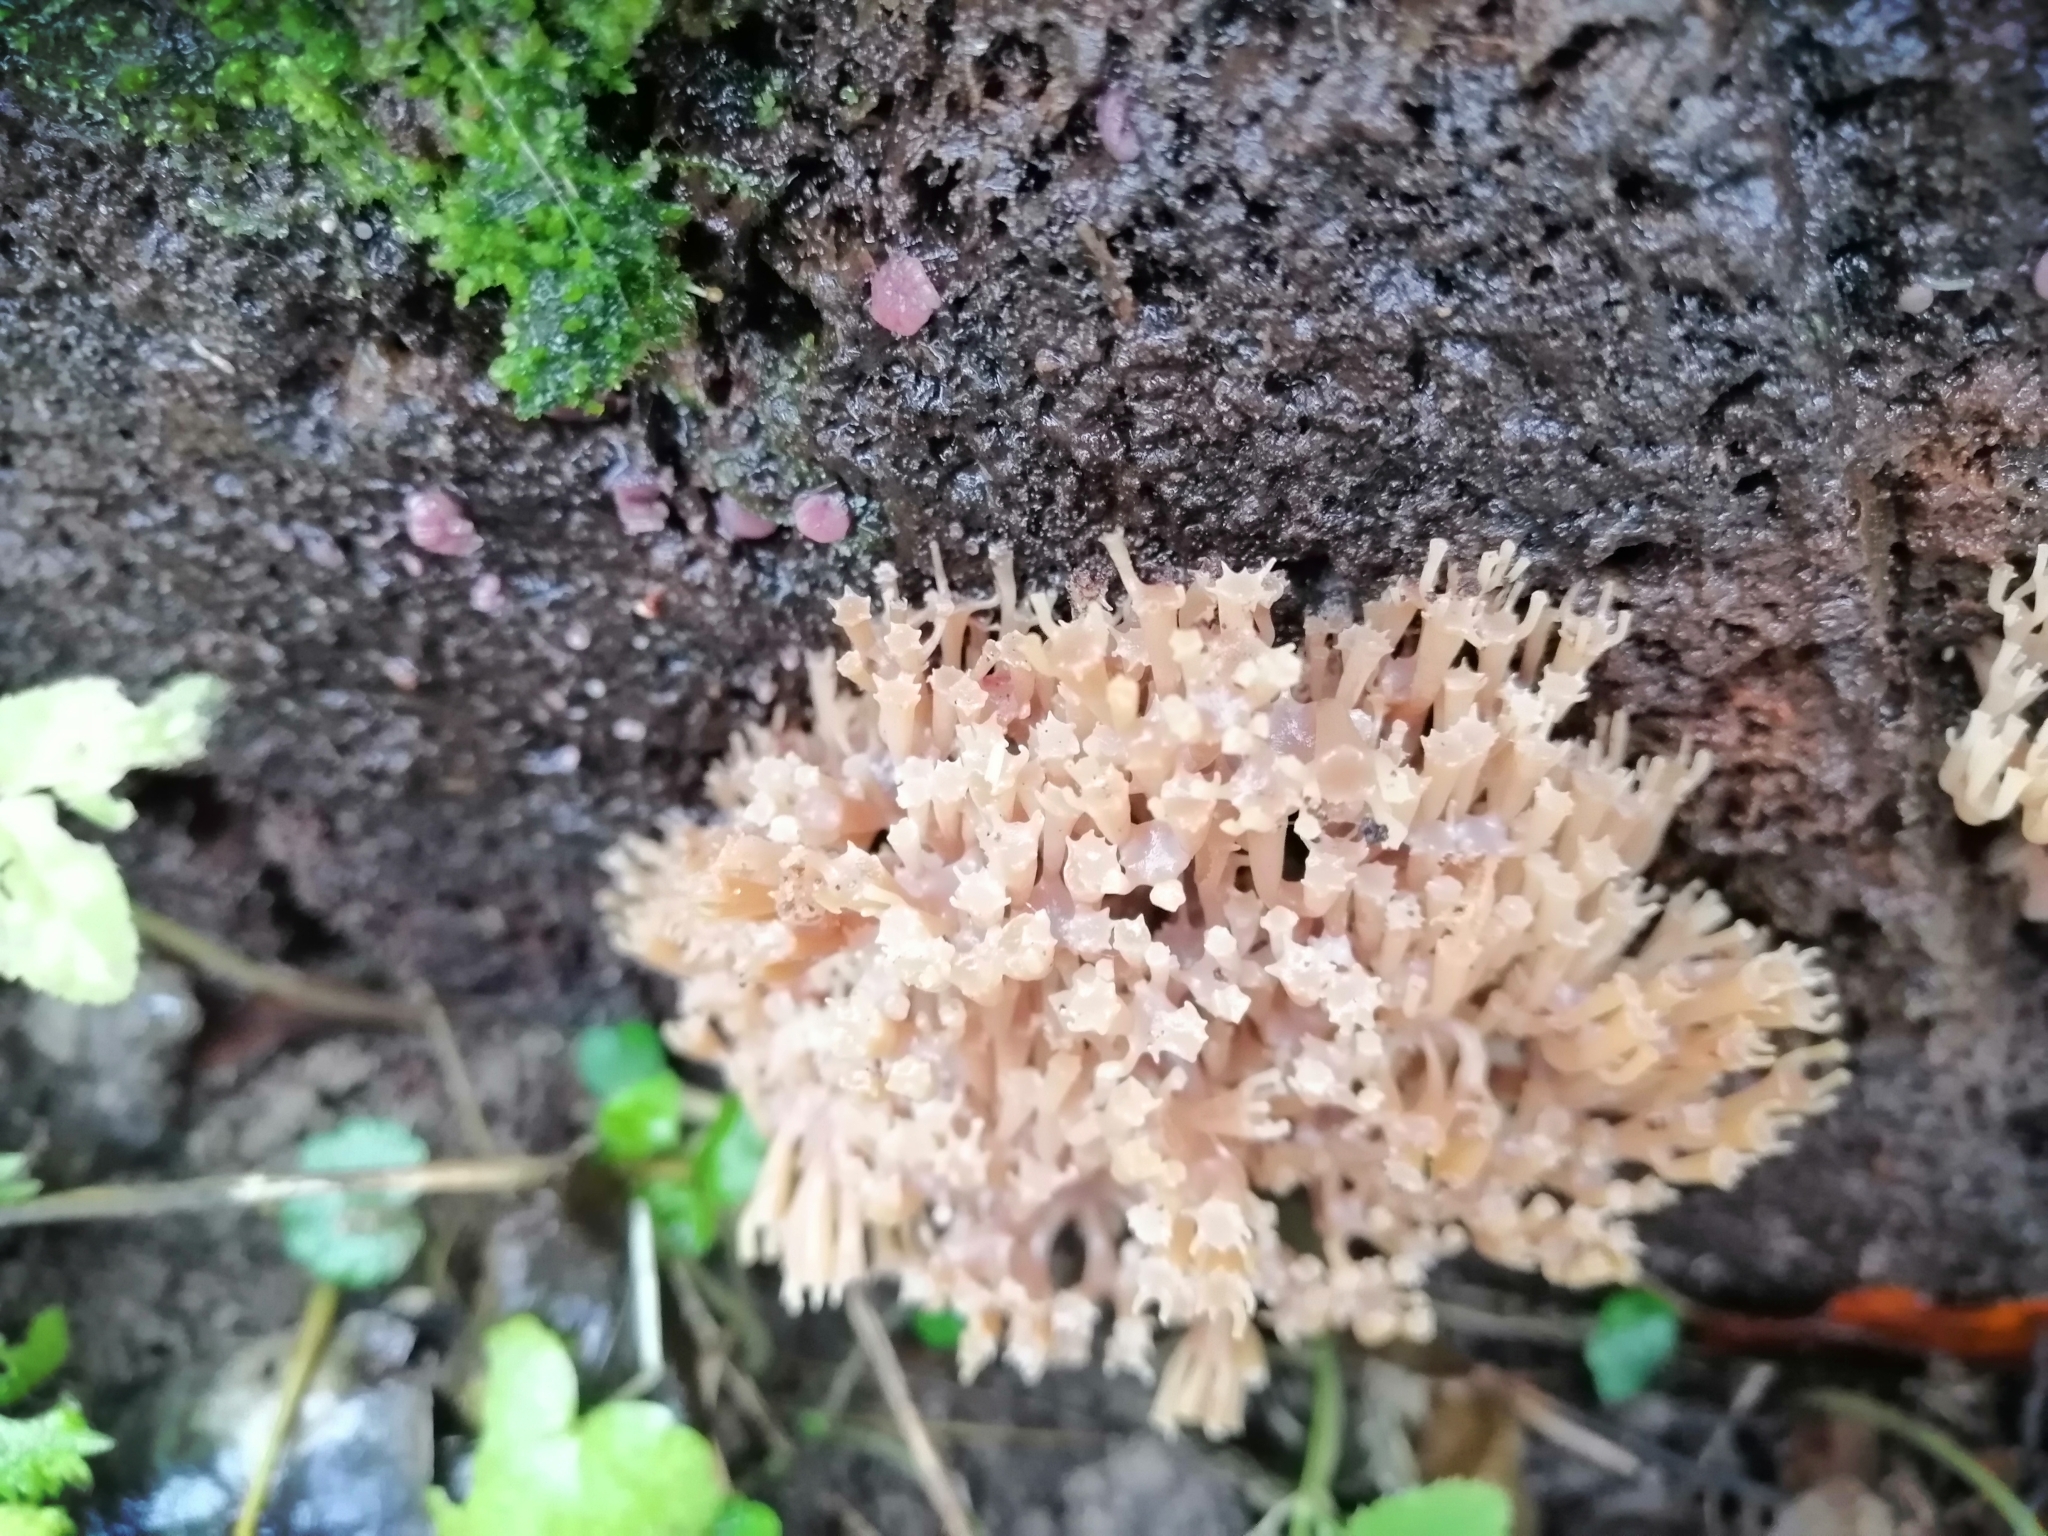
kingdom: Fungi
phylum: Basidiomycota
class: Agaricomycetes
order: Russulales
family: Auriscalpiaceae
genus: Artomyces
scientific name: Artomyces pyxidatus
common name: Crown-tipped coral fungus
